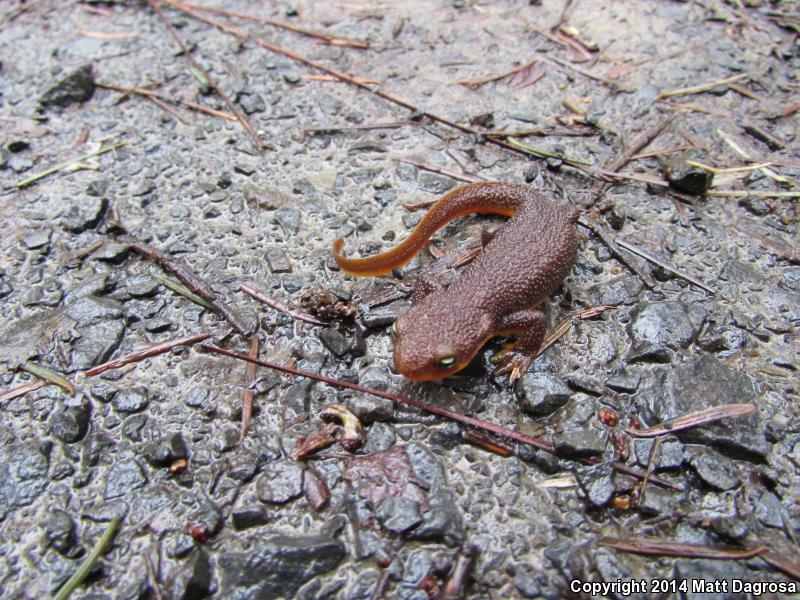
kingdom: Animalia
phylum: Chordata
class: Amphibia
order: Caudata
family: Salamandridae
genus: Taricha
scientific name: Taricha granulosa
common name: Roughskin newt
